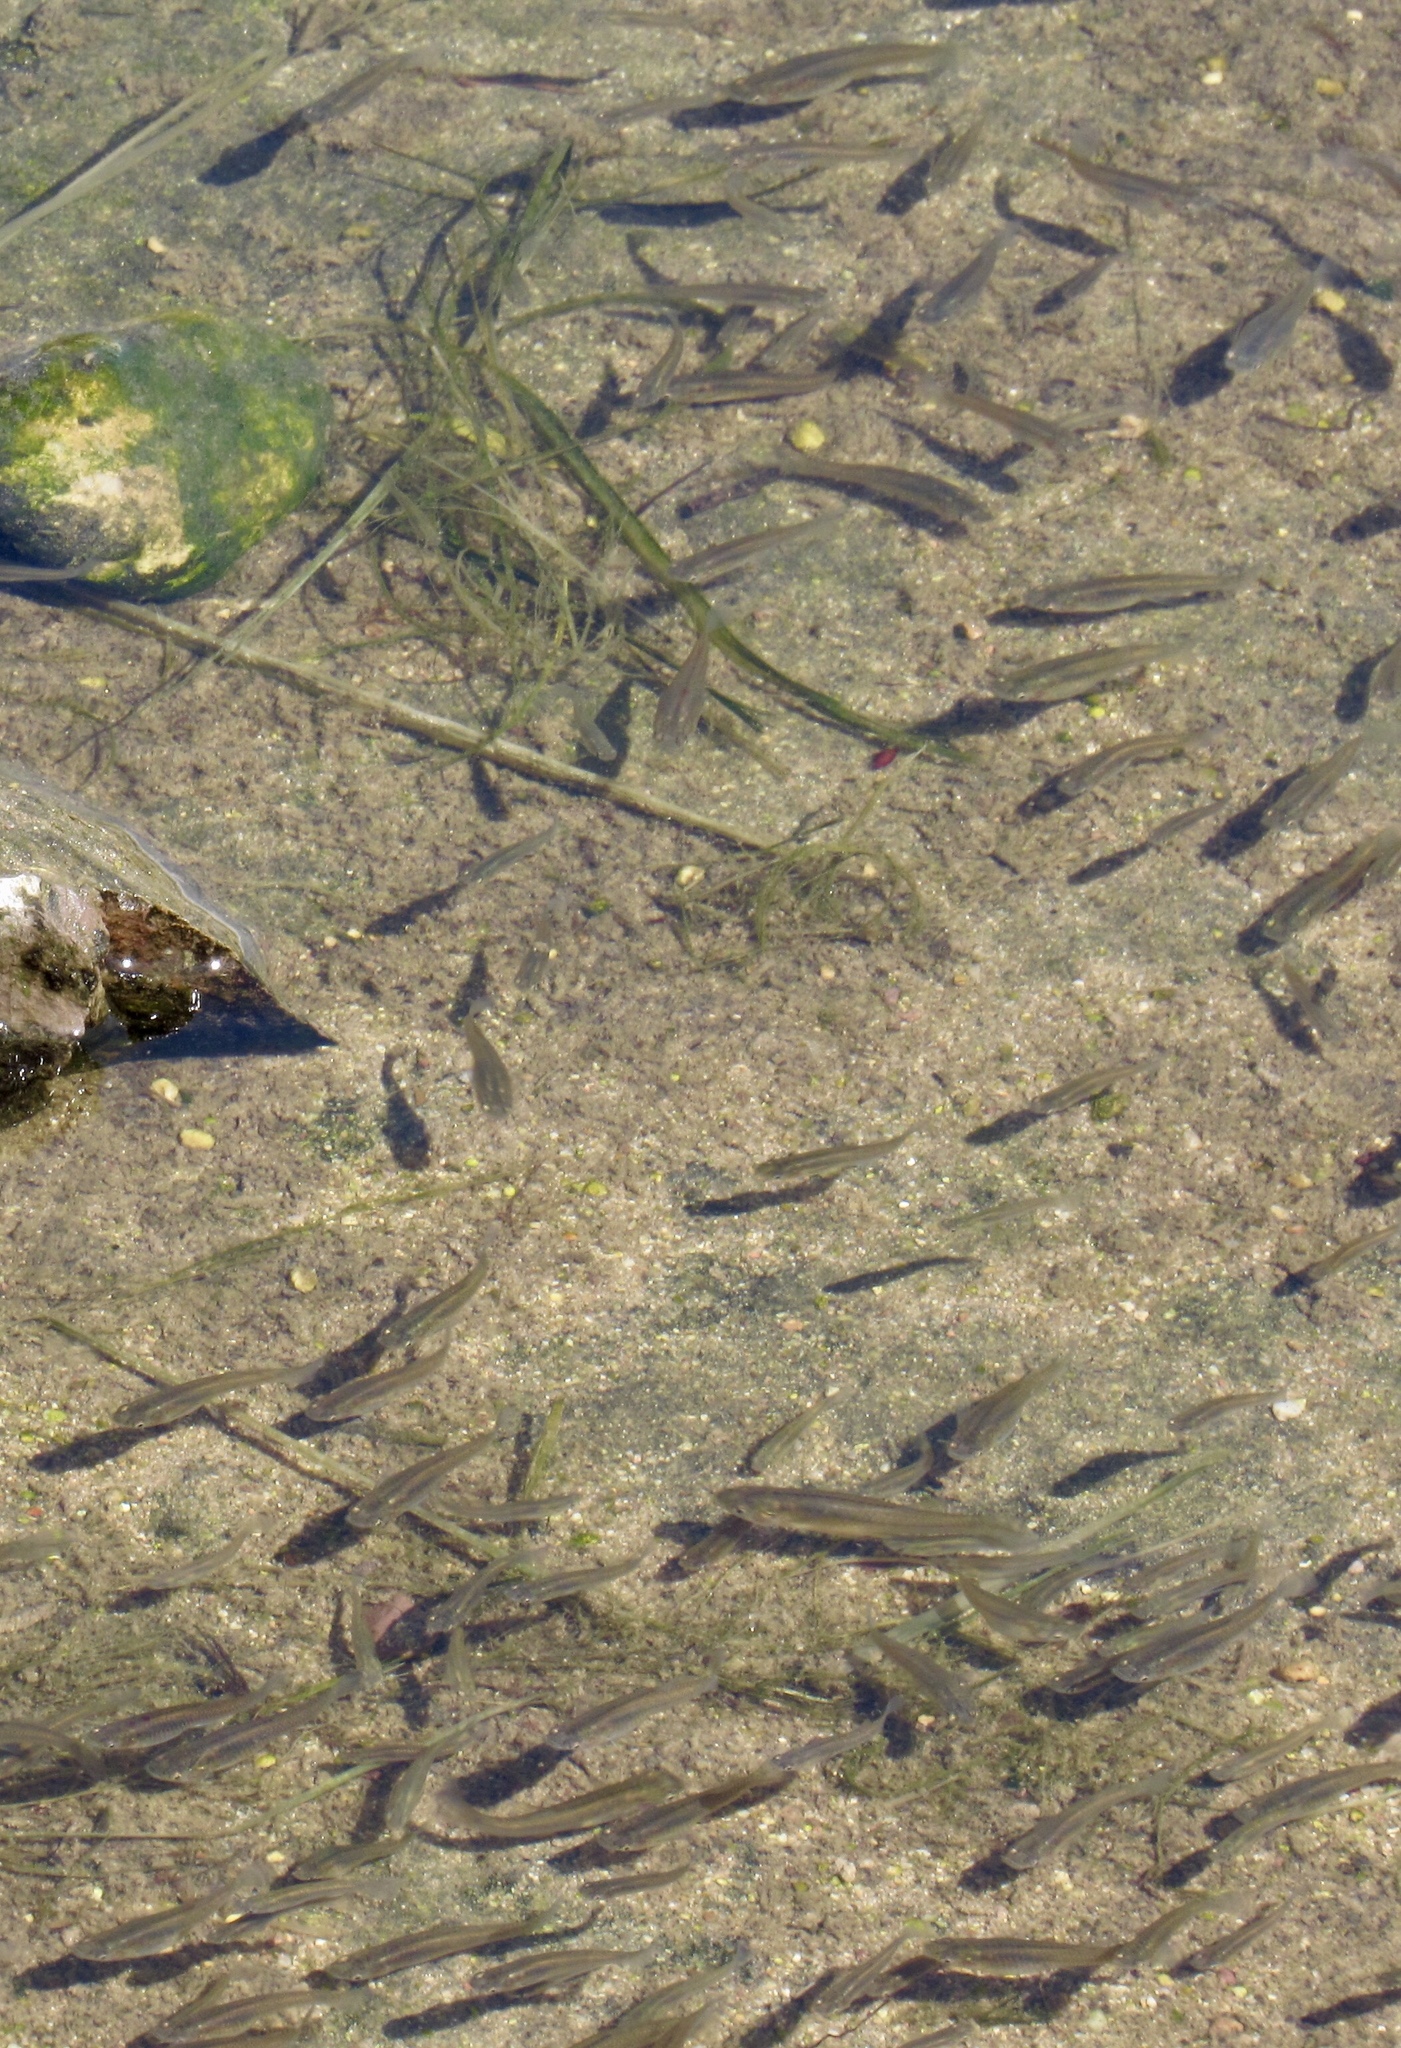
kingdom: Animalia
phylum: Chordata
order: Cyprinodontiformes
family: Poeciliidae
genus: Gambusia
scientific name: Gambusia affinis
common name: Mosquitofish
